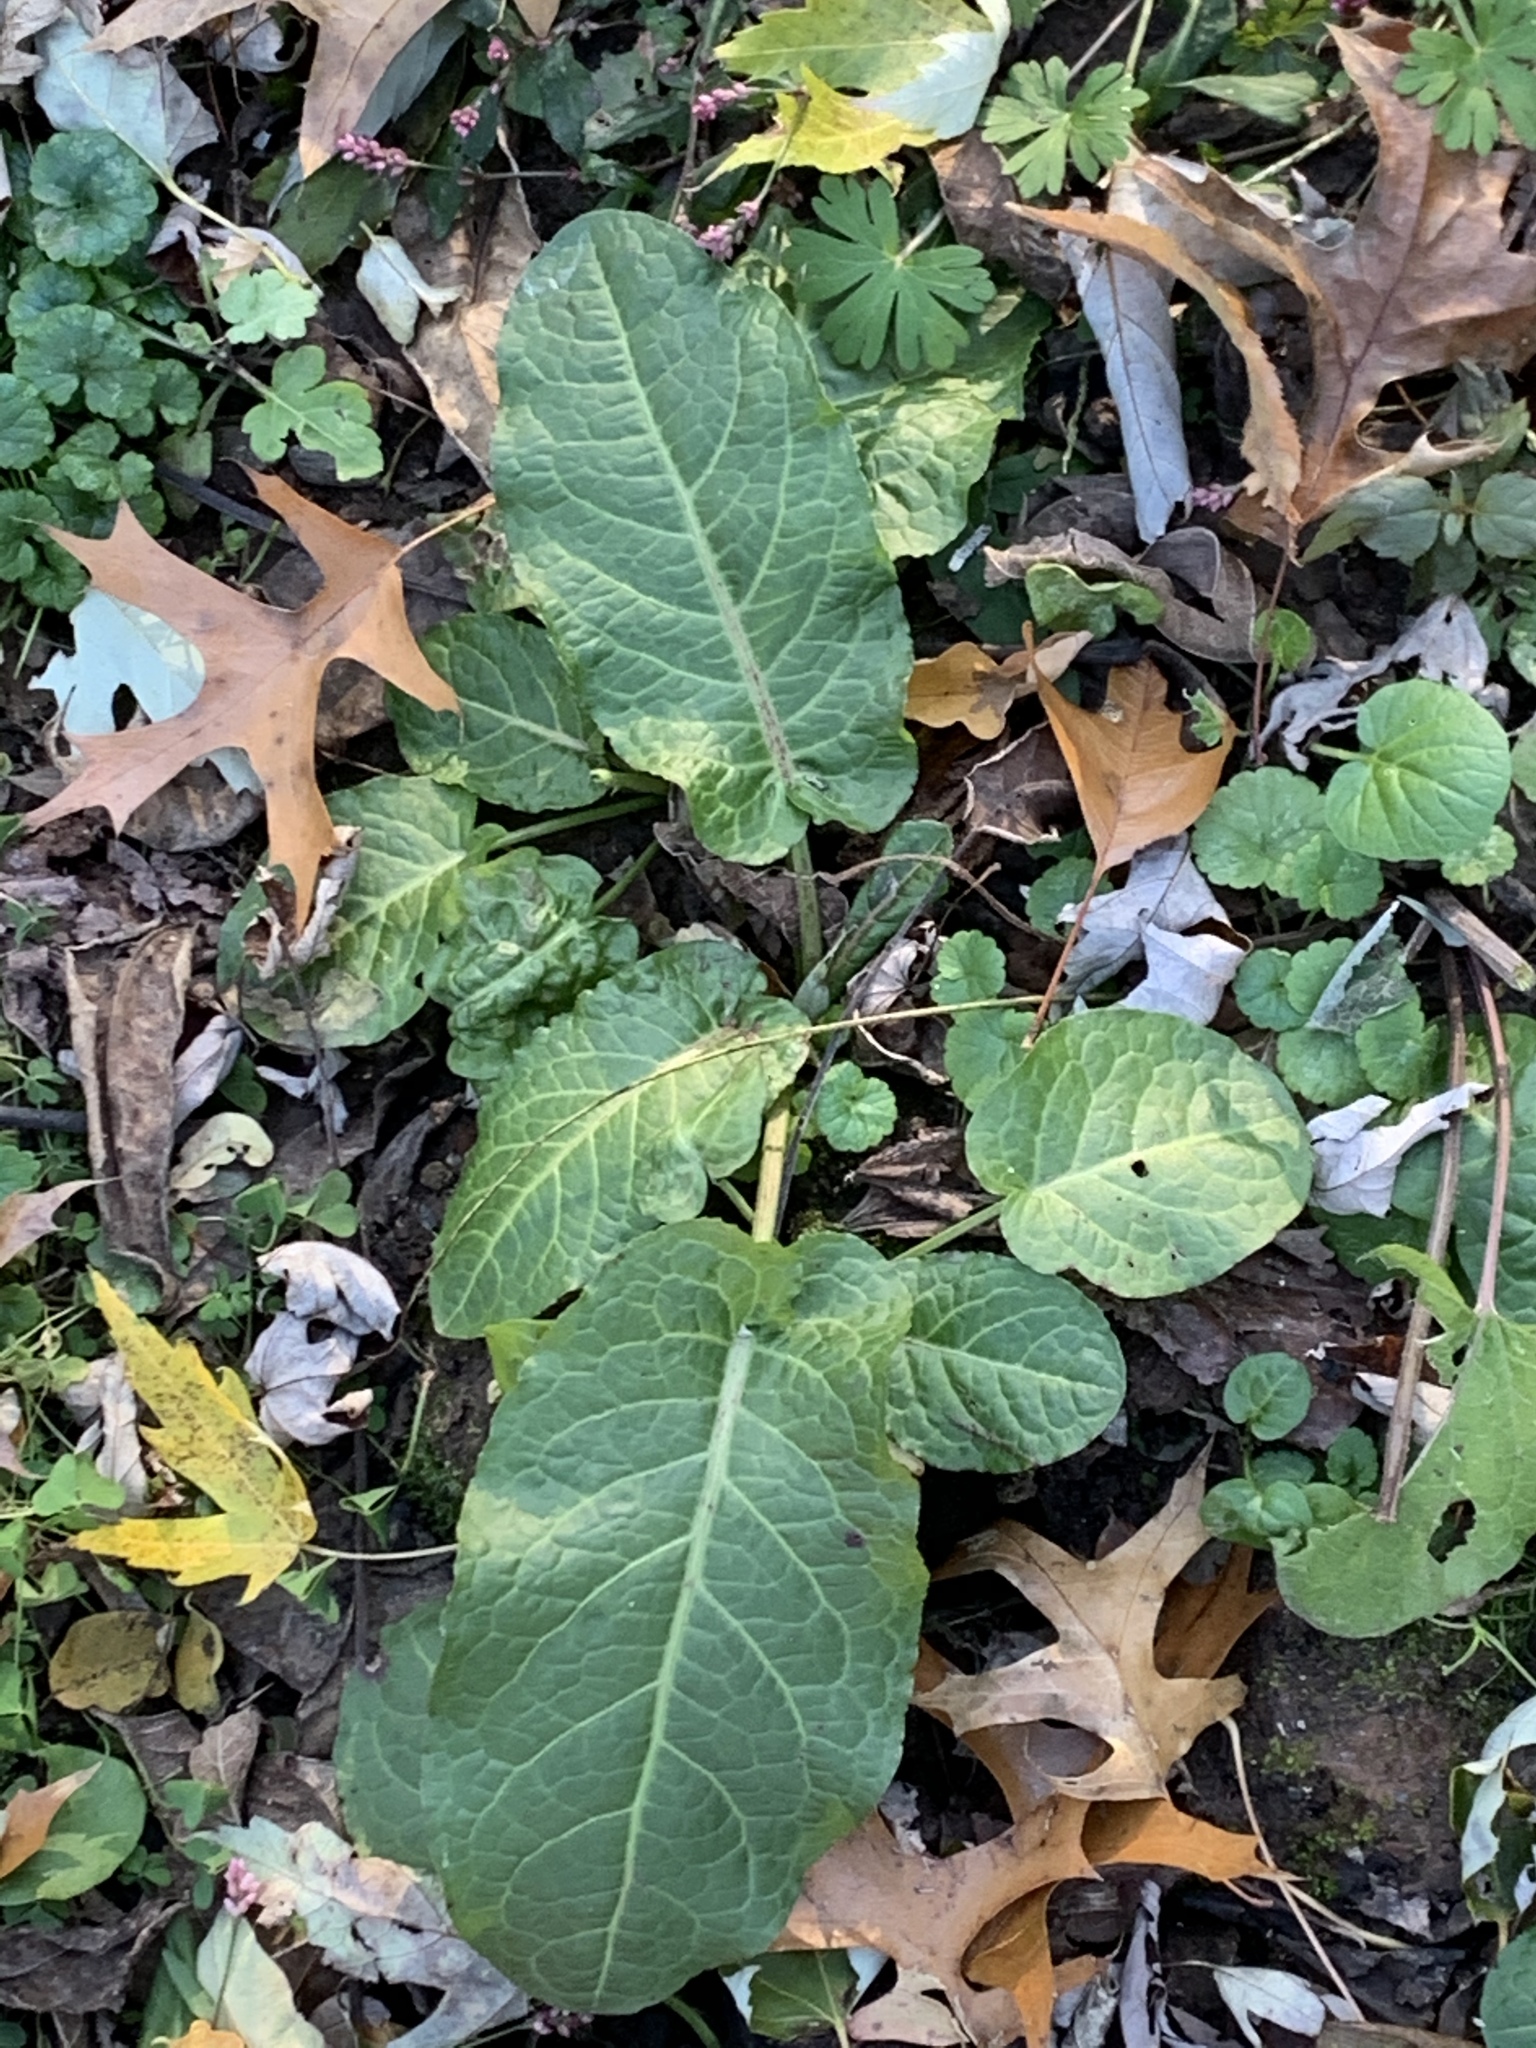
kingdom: Plantae
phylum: Tracheophyta
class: Magnoliopsida
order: Caryophyllales
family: Polygonaceae
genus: Rumex
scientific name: Rumex obtusifolius
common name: Bitter dock
